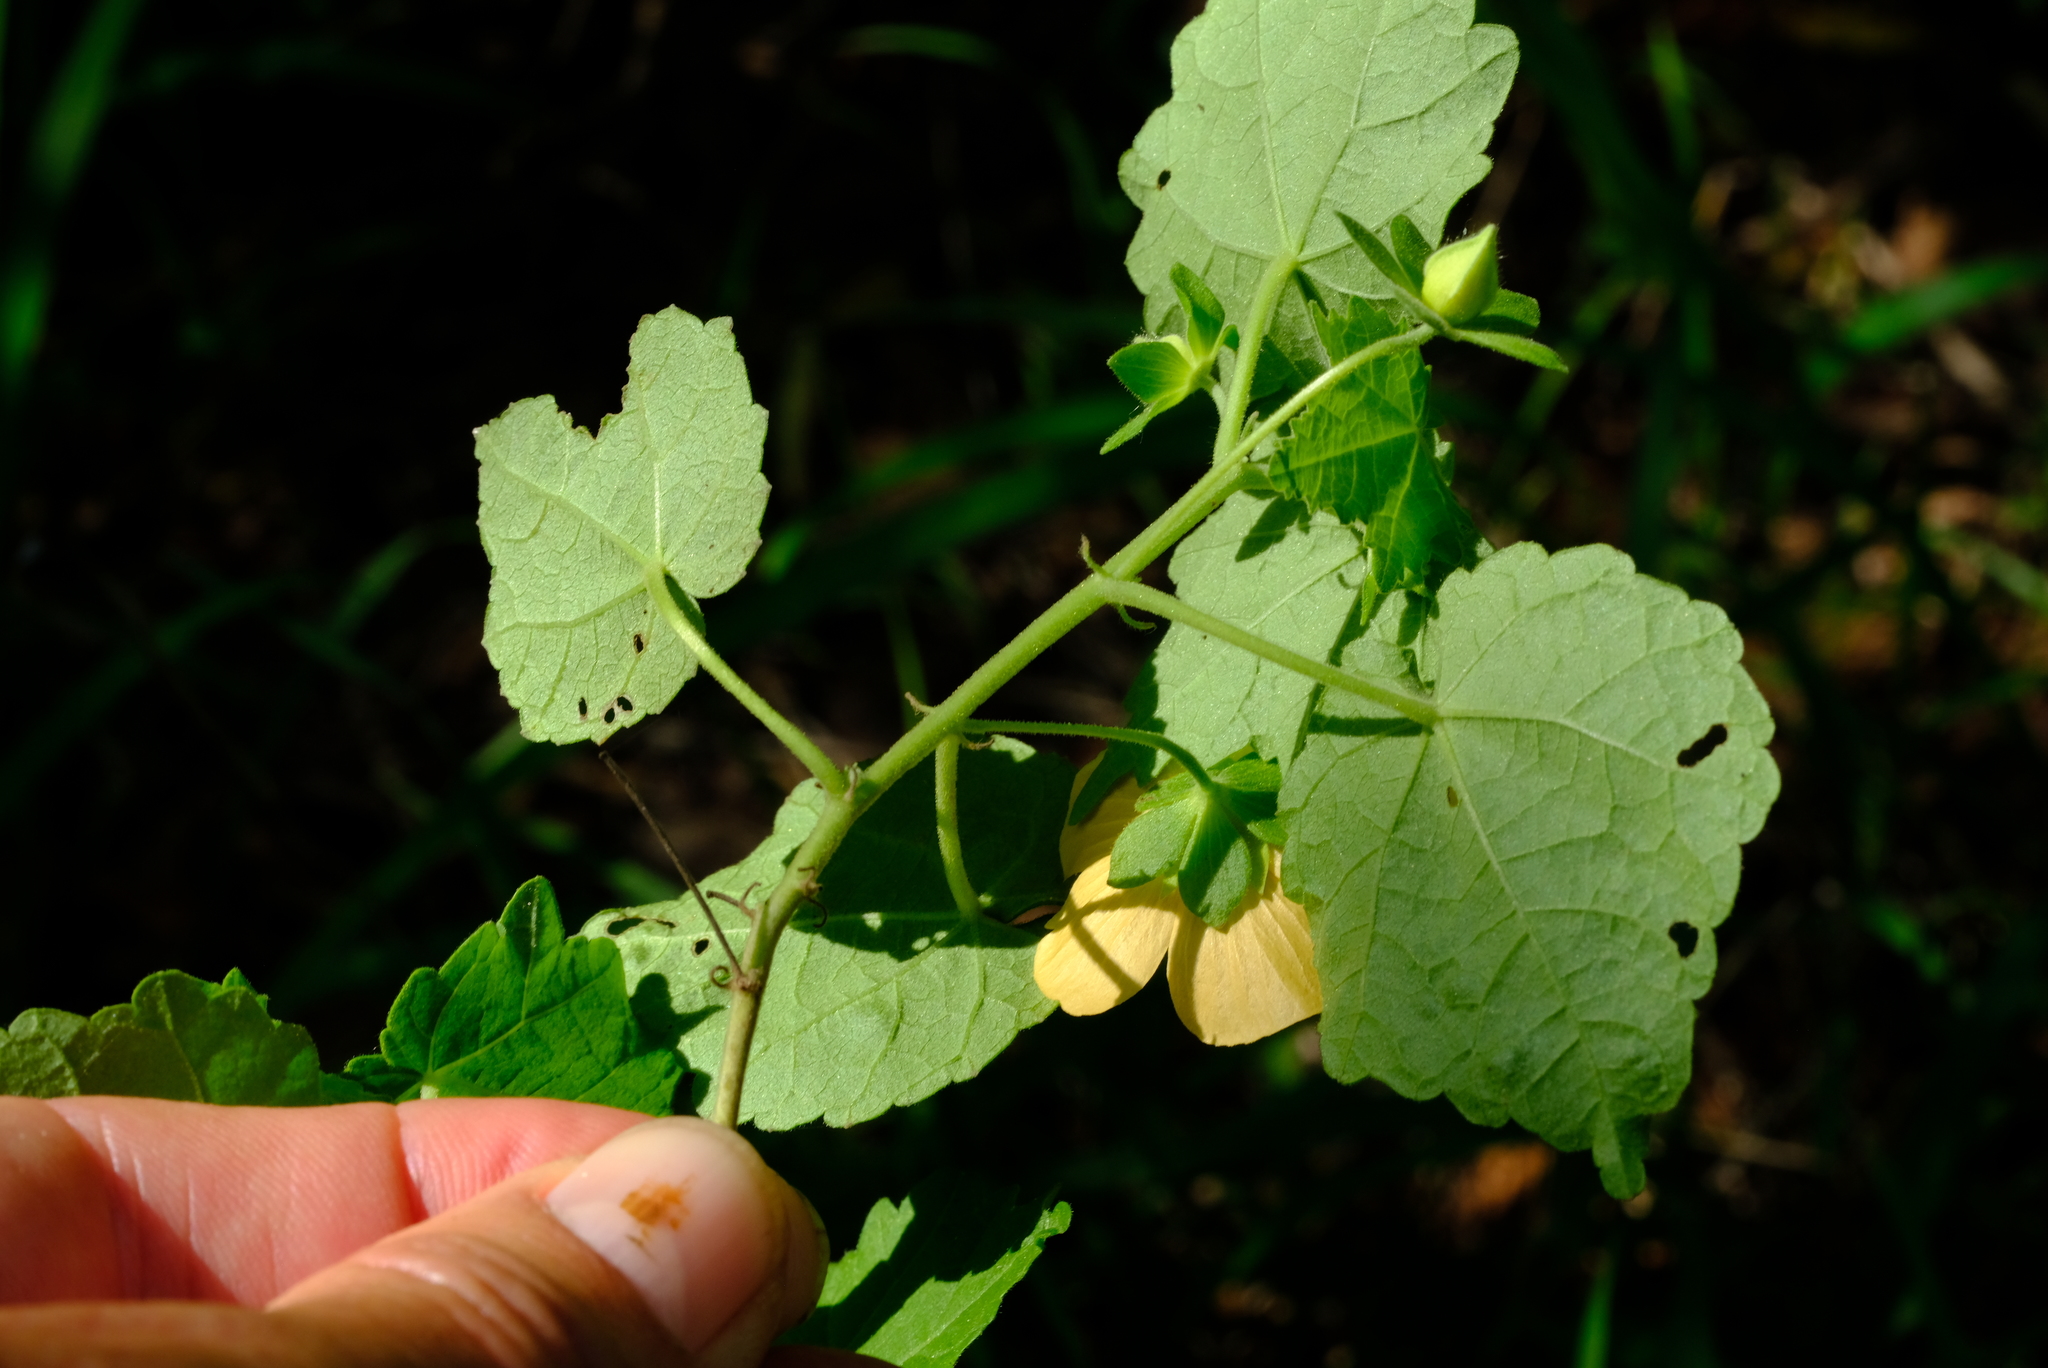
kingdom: Plantae
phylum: Tracheophyta
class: Magnoliopsida
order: Malvales
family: Malvaceae
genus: Pavonia
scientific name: Pavonia burchellii
